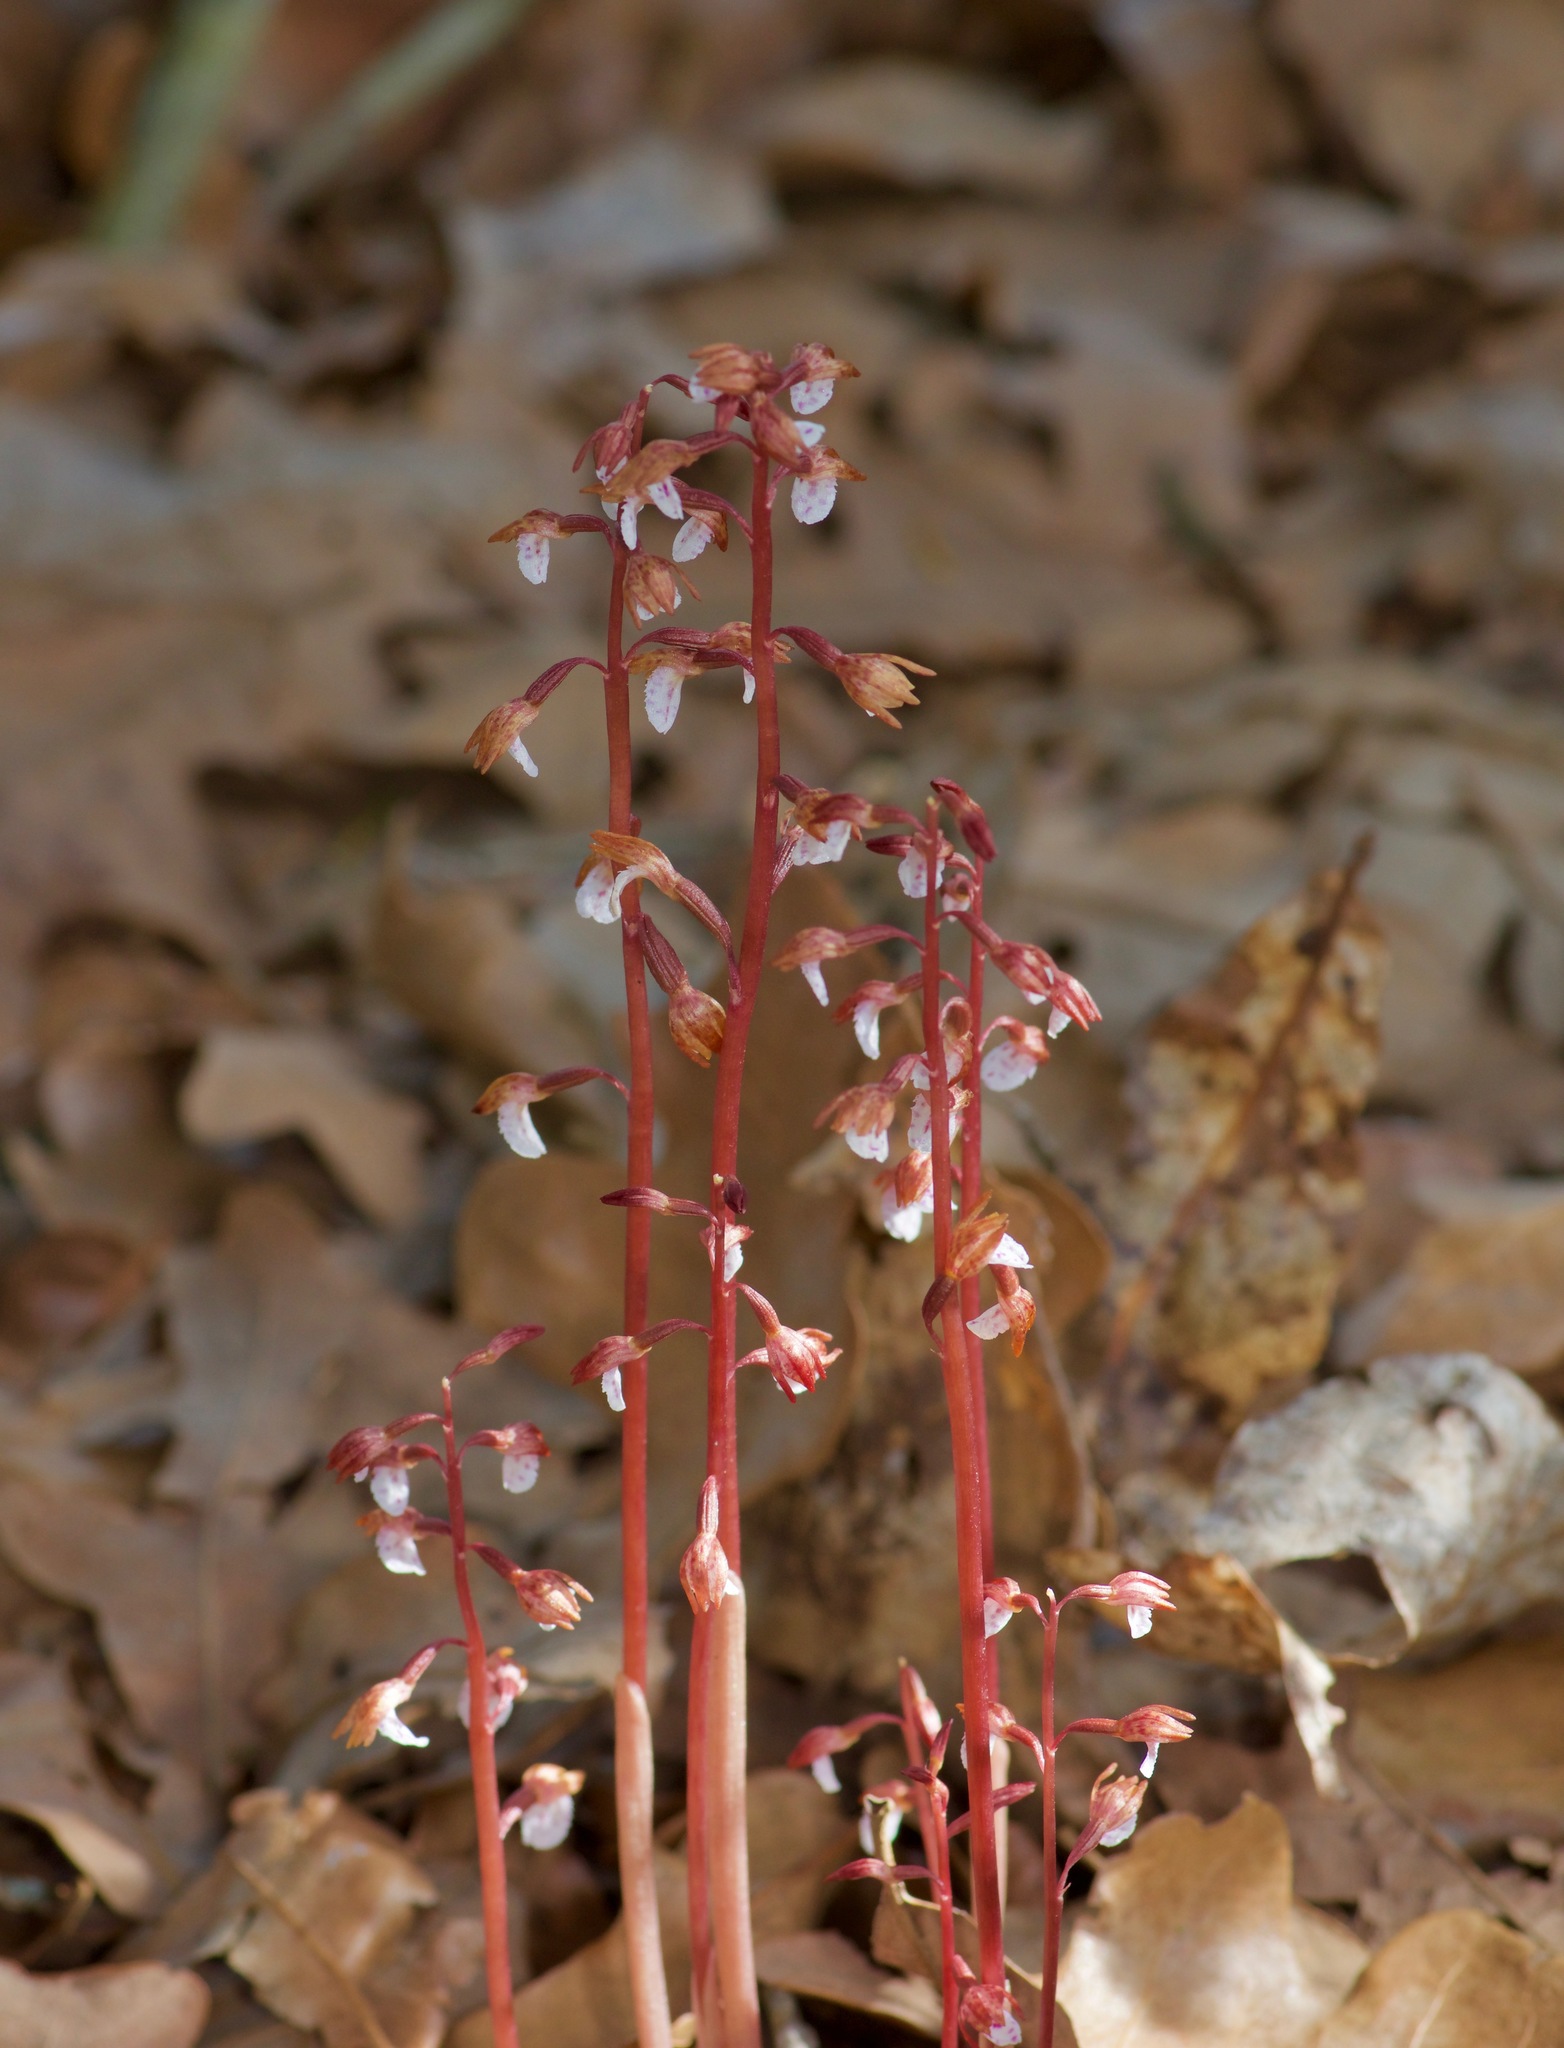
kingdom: Plantae
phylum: Tracheophyta
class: Liliopsida
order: Asparagales
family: Orchidaceae
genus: Corallorhiza
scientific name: Corallorhiza wisteriana
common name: Spring coralroot
